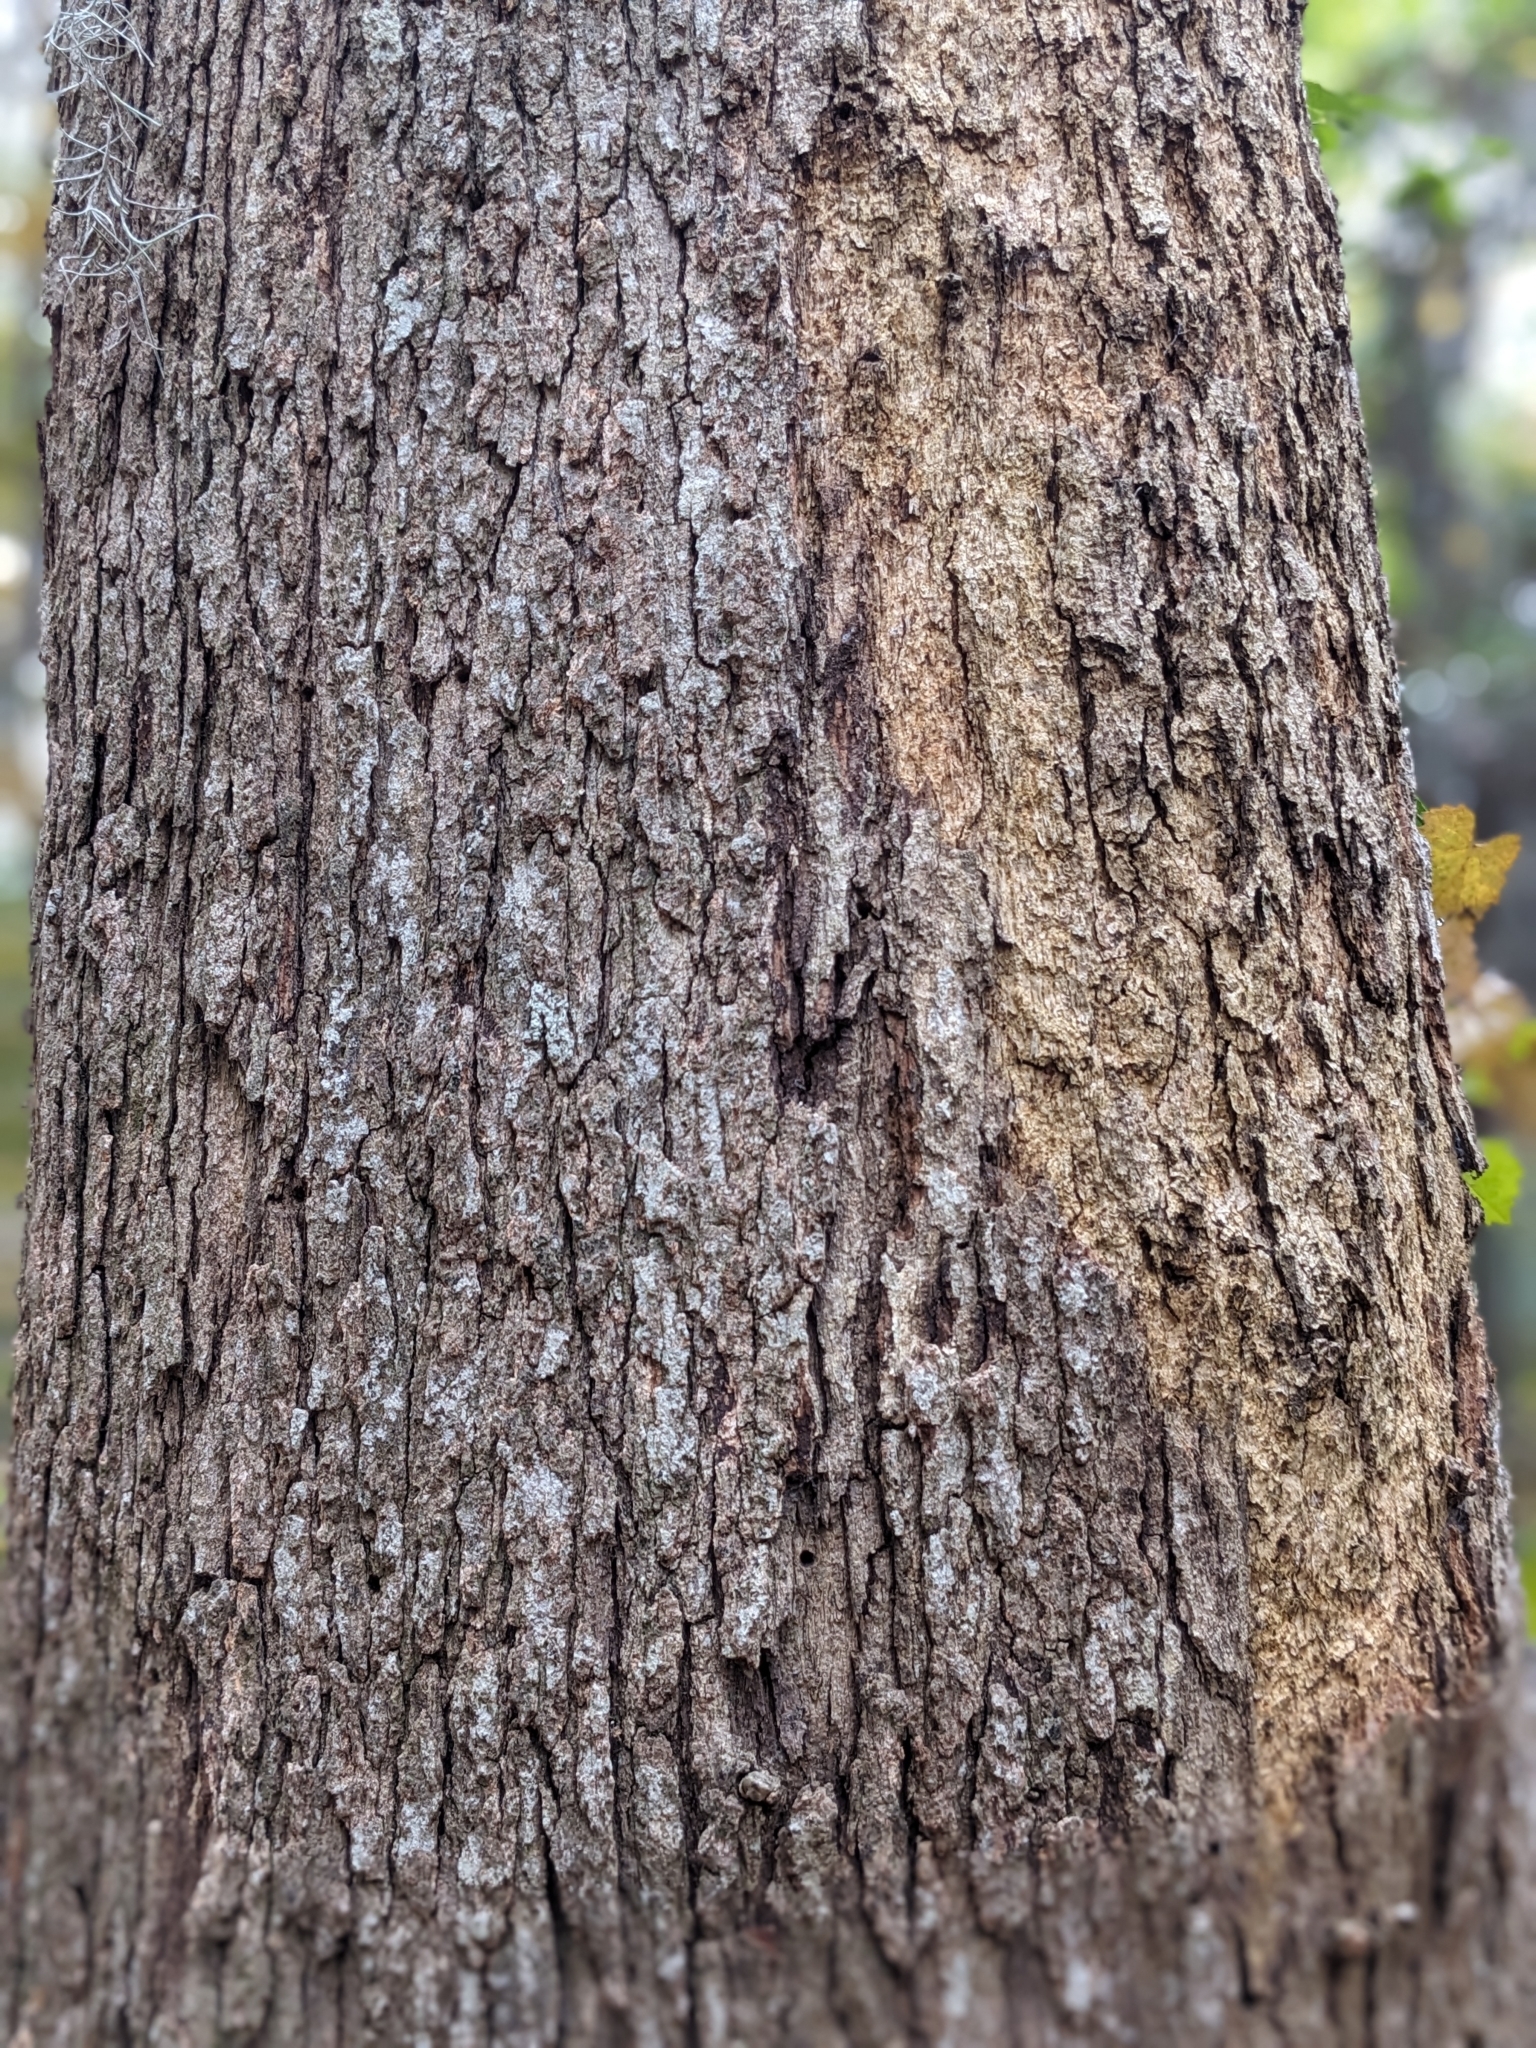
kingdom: Plantae
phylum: Tracheophyta
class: Magnoliopsida
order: Fagales
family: Fagaceae
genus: Quercus
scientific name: Quercus stellata
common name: Post oak
